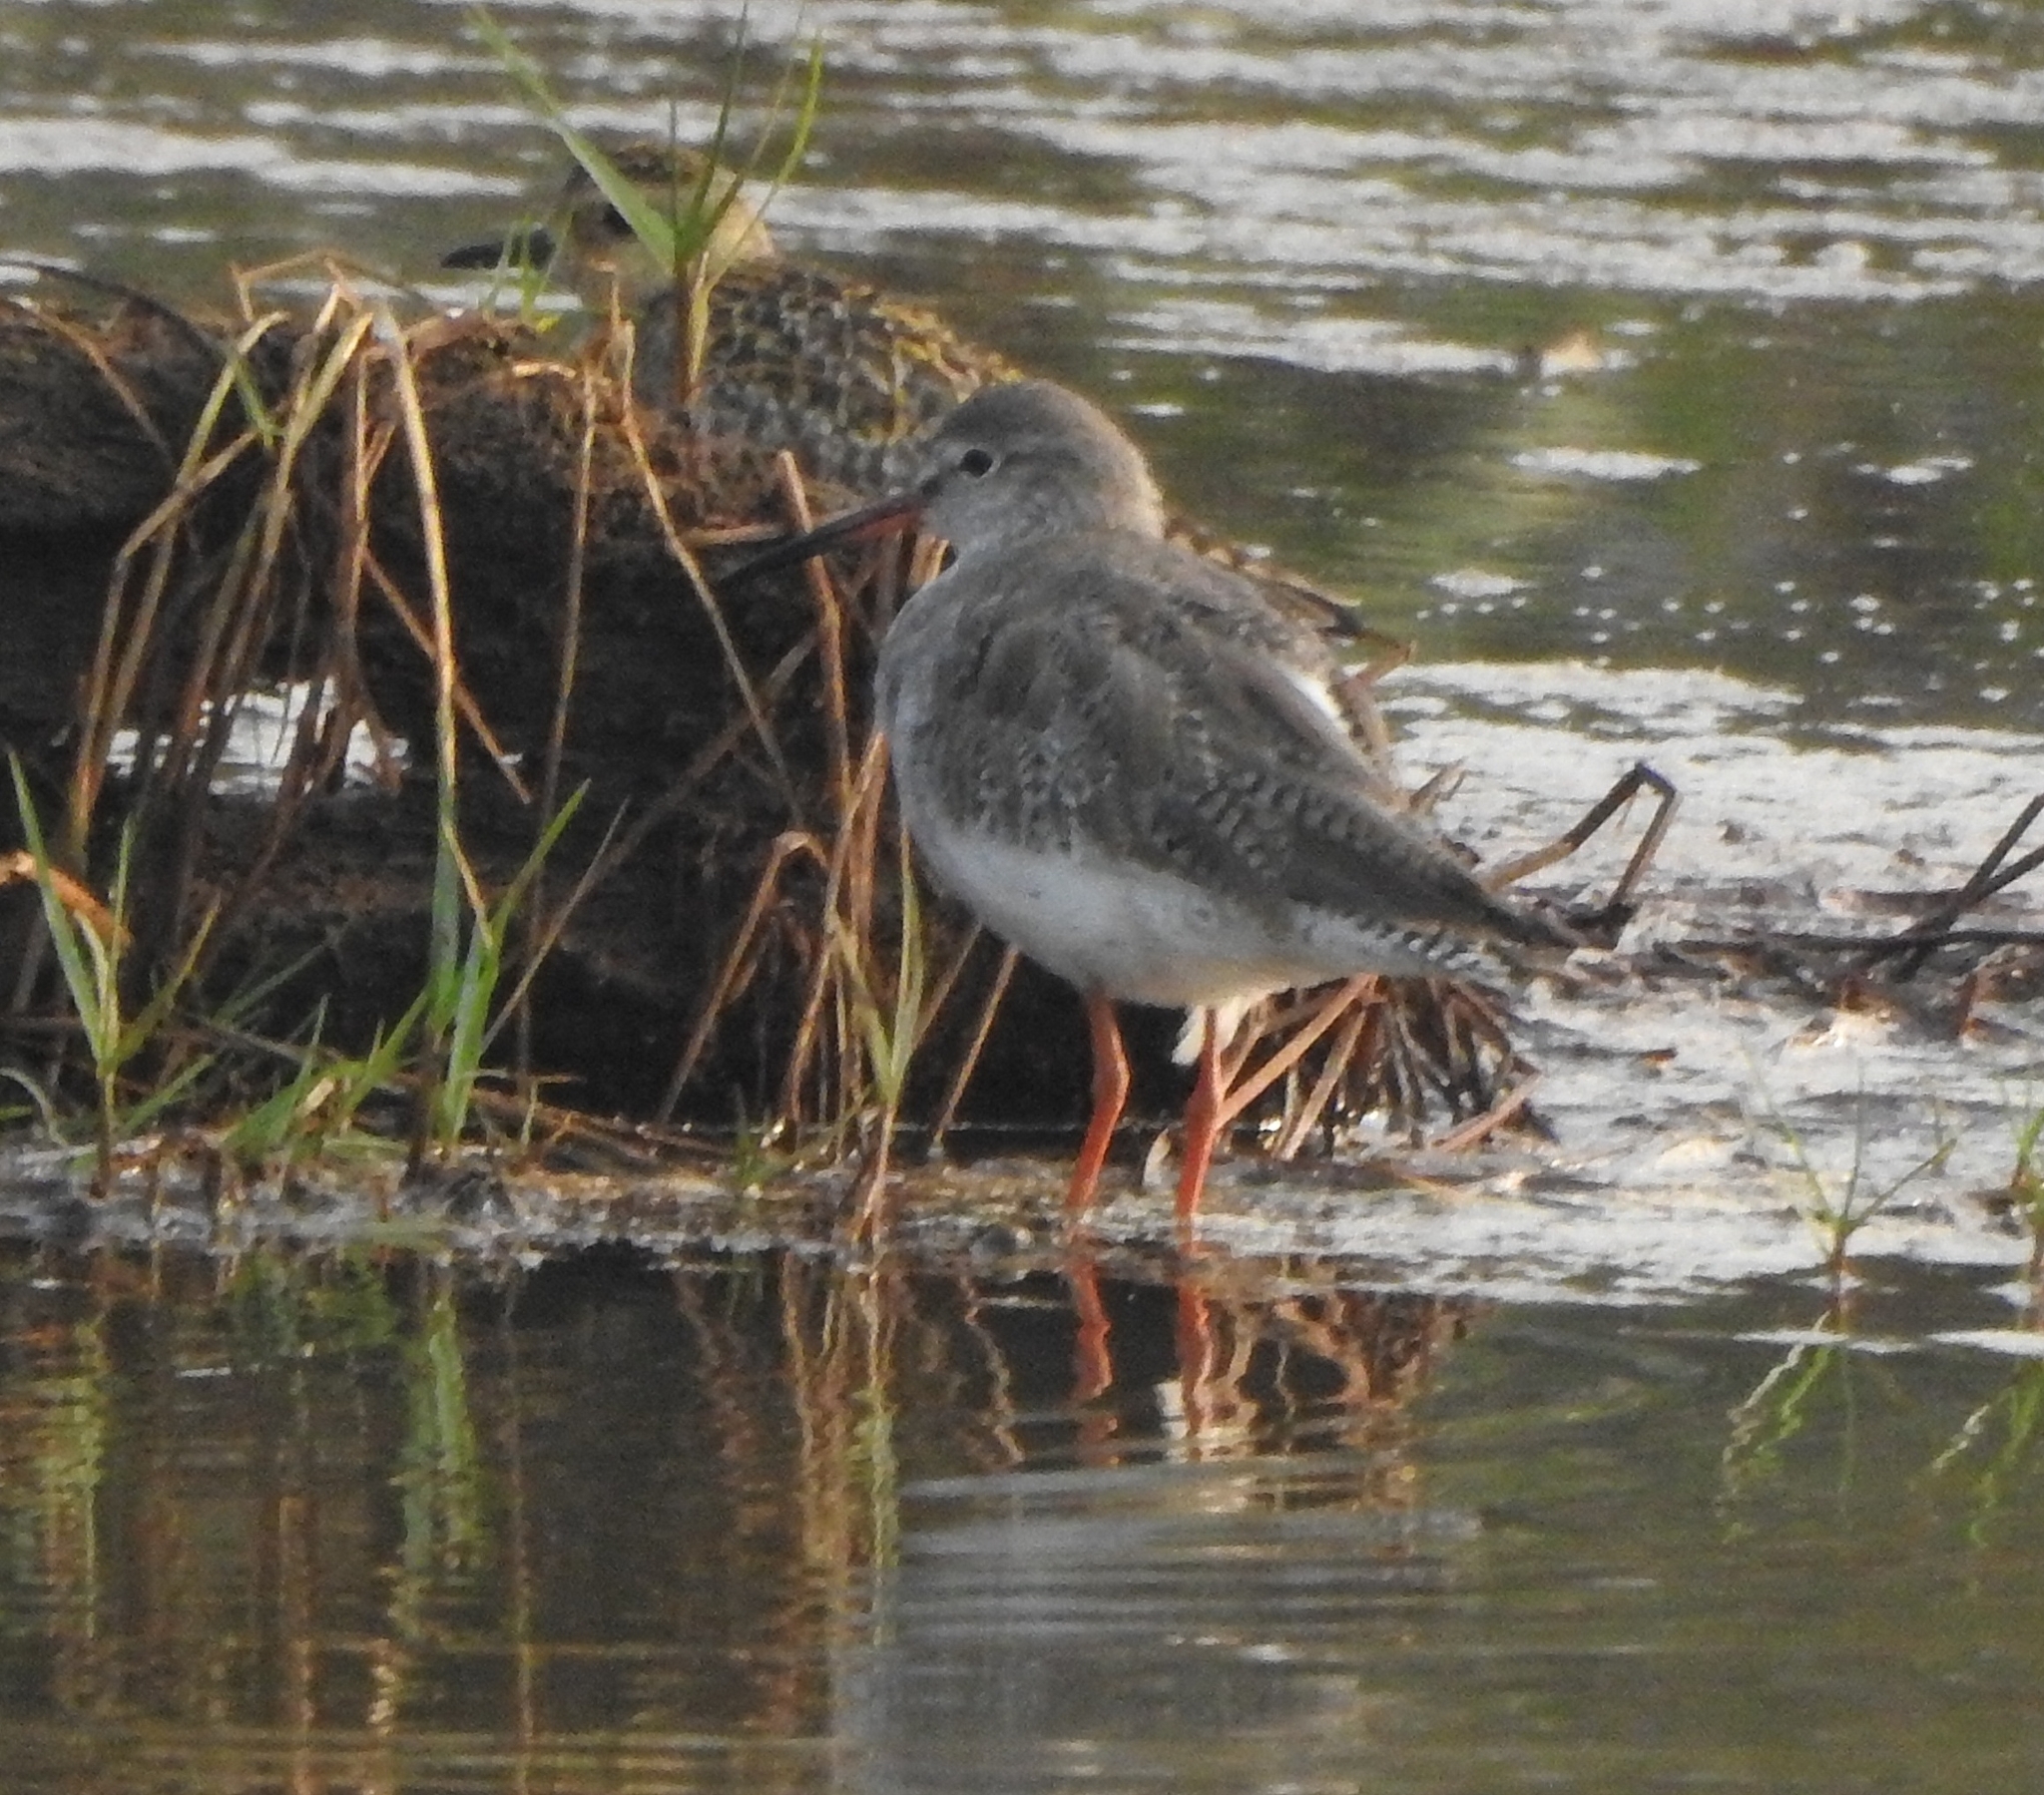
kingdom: Animalia
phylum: Chordata
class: Aves
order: Charadriiformes
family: Scolopacidae
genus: Tringa
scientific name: Tringa totanus
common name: Common redshank
